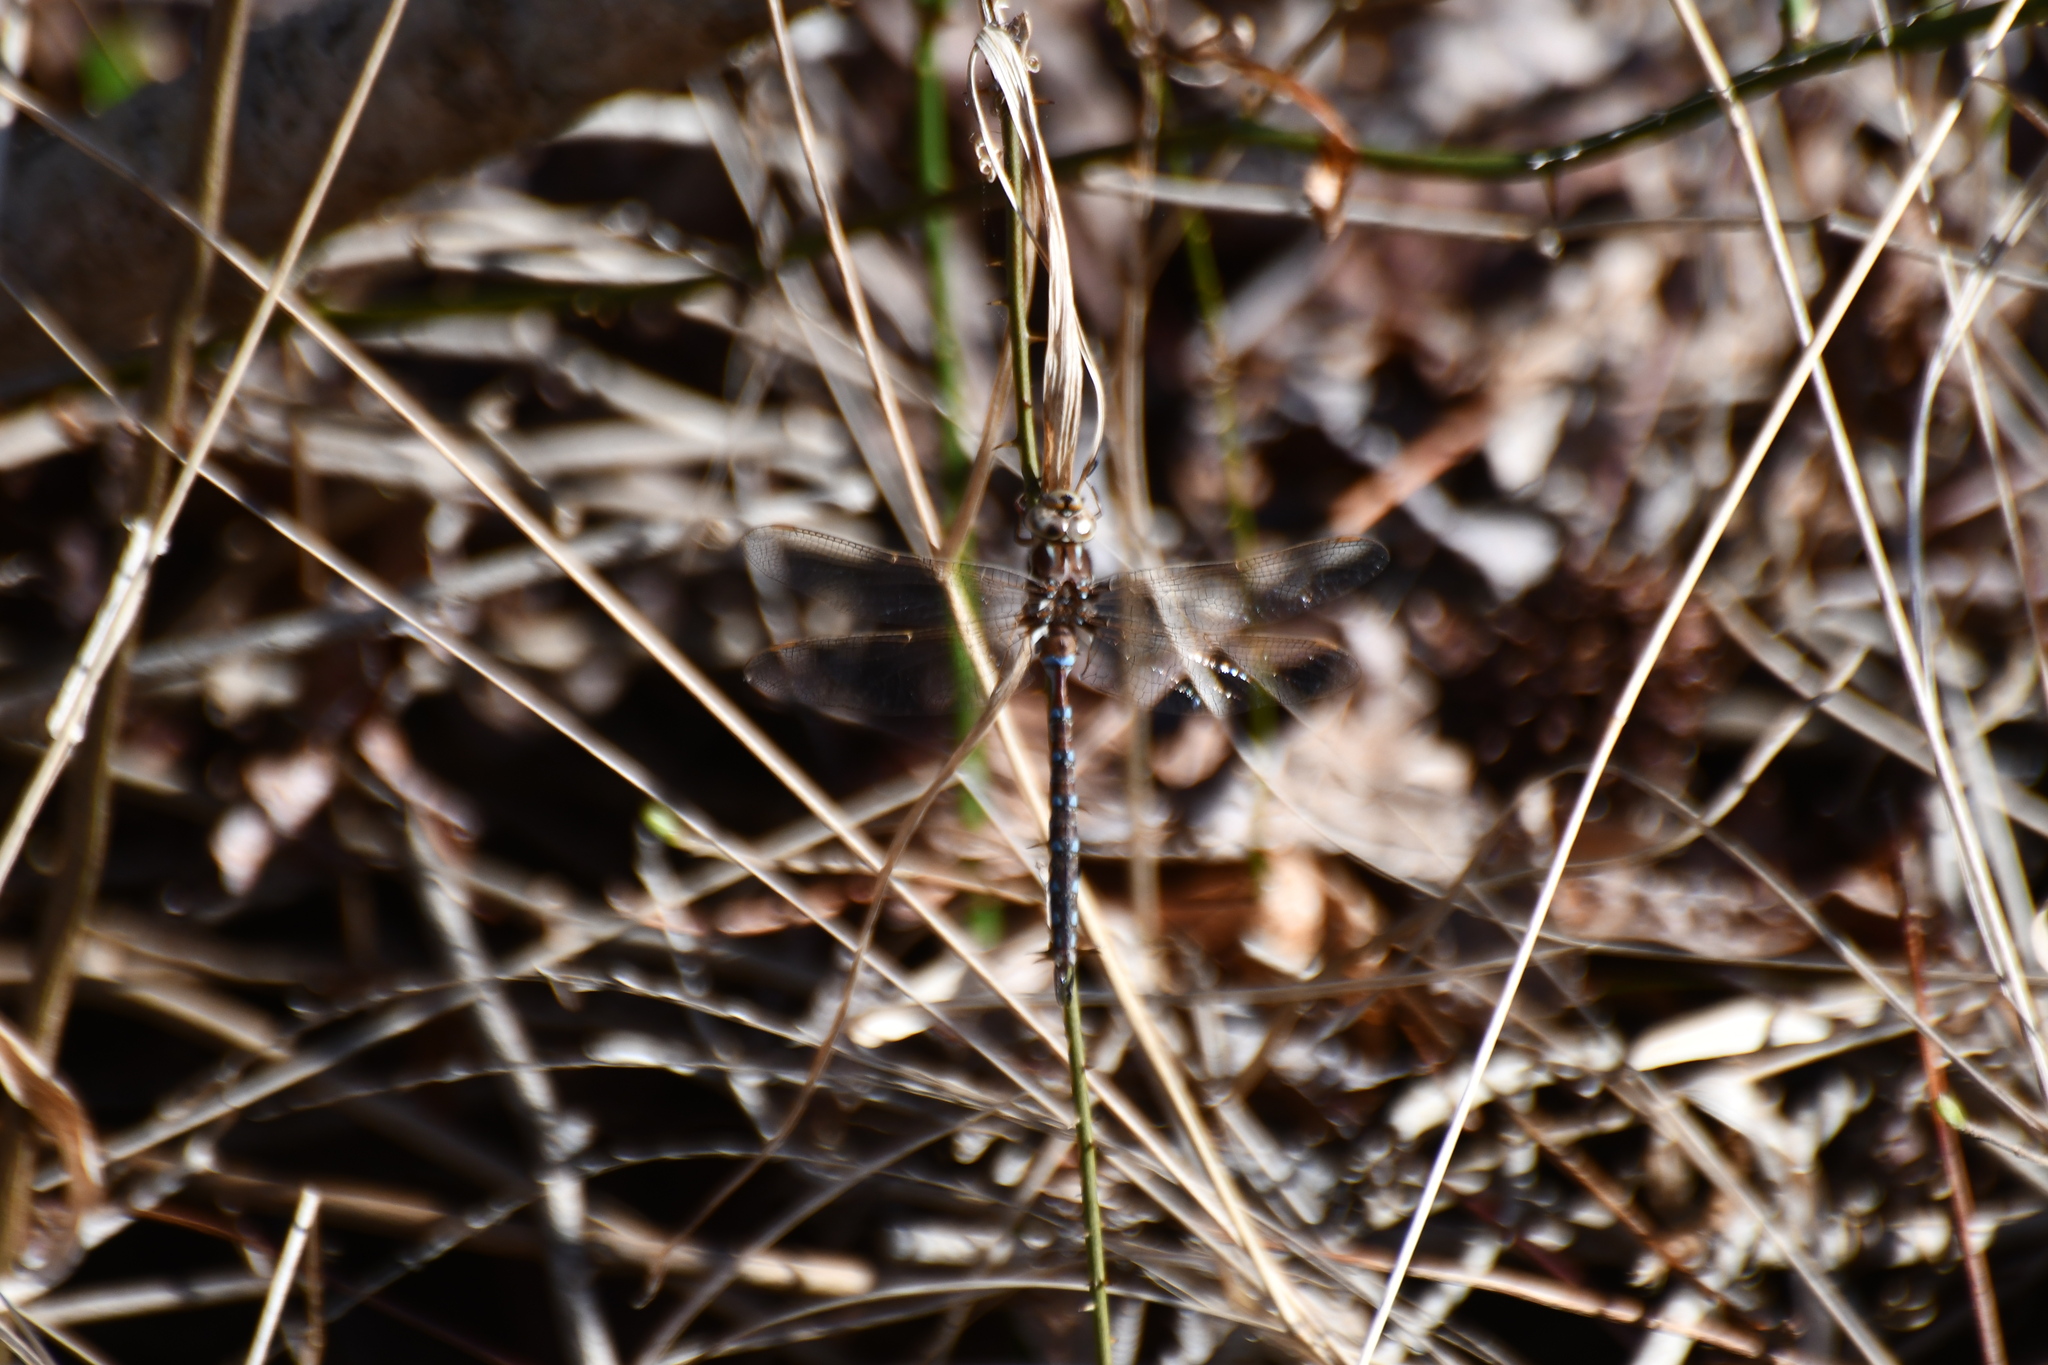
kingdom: Animalia
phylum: Arthropoda
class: Insecta
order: Odonata
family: Aeshnidae
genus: Basiaeschna
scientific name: Basiaeschna janata
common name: Springtime darner
